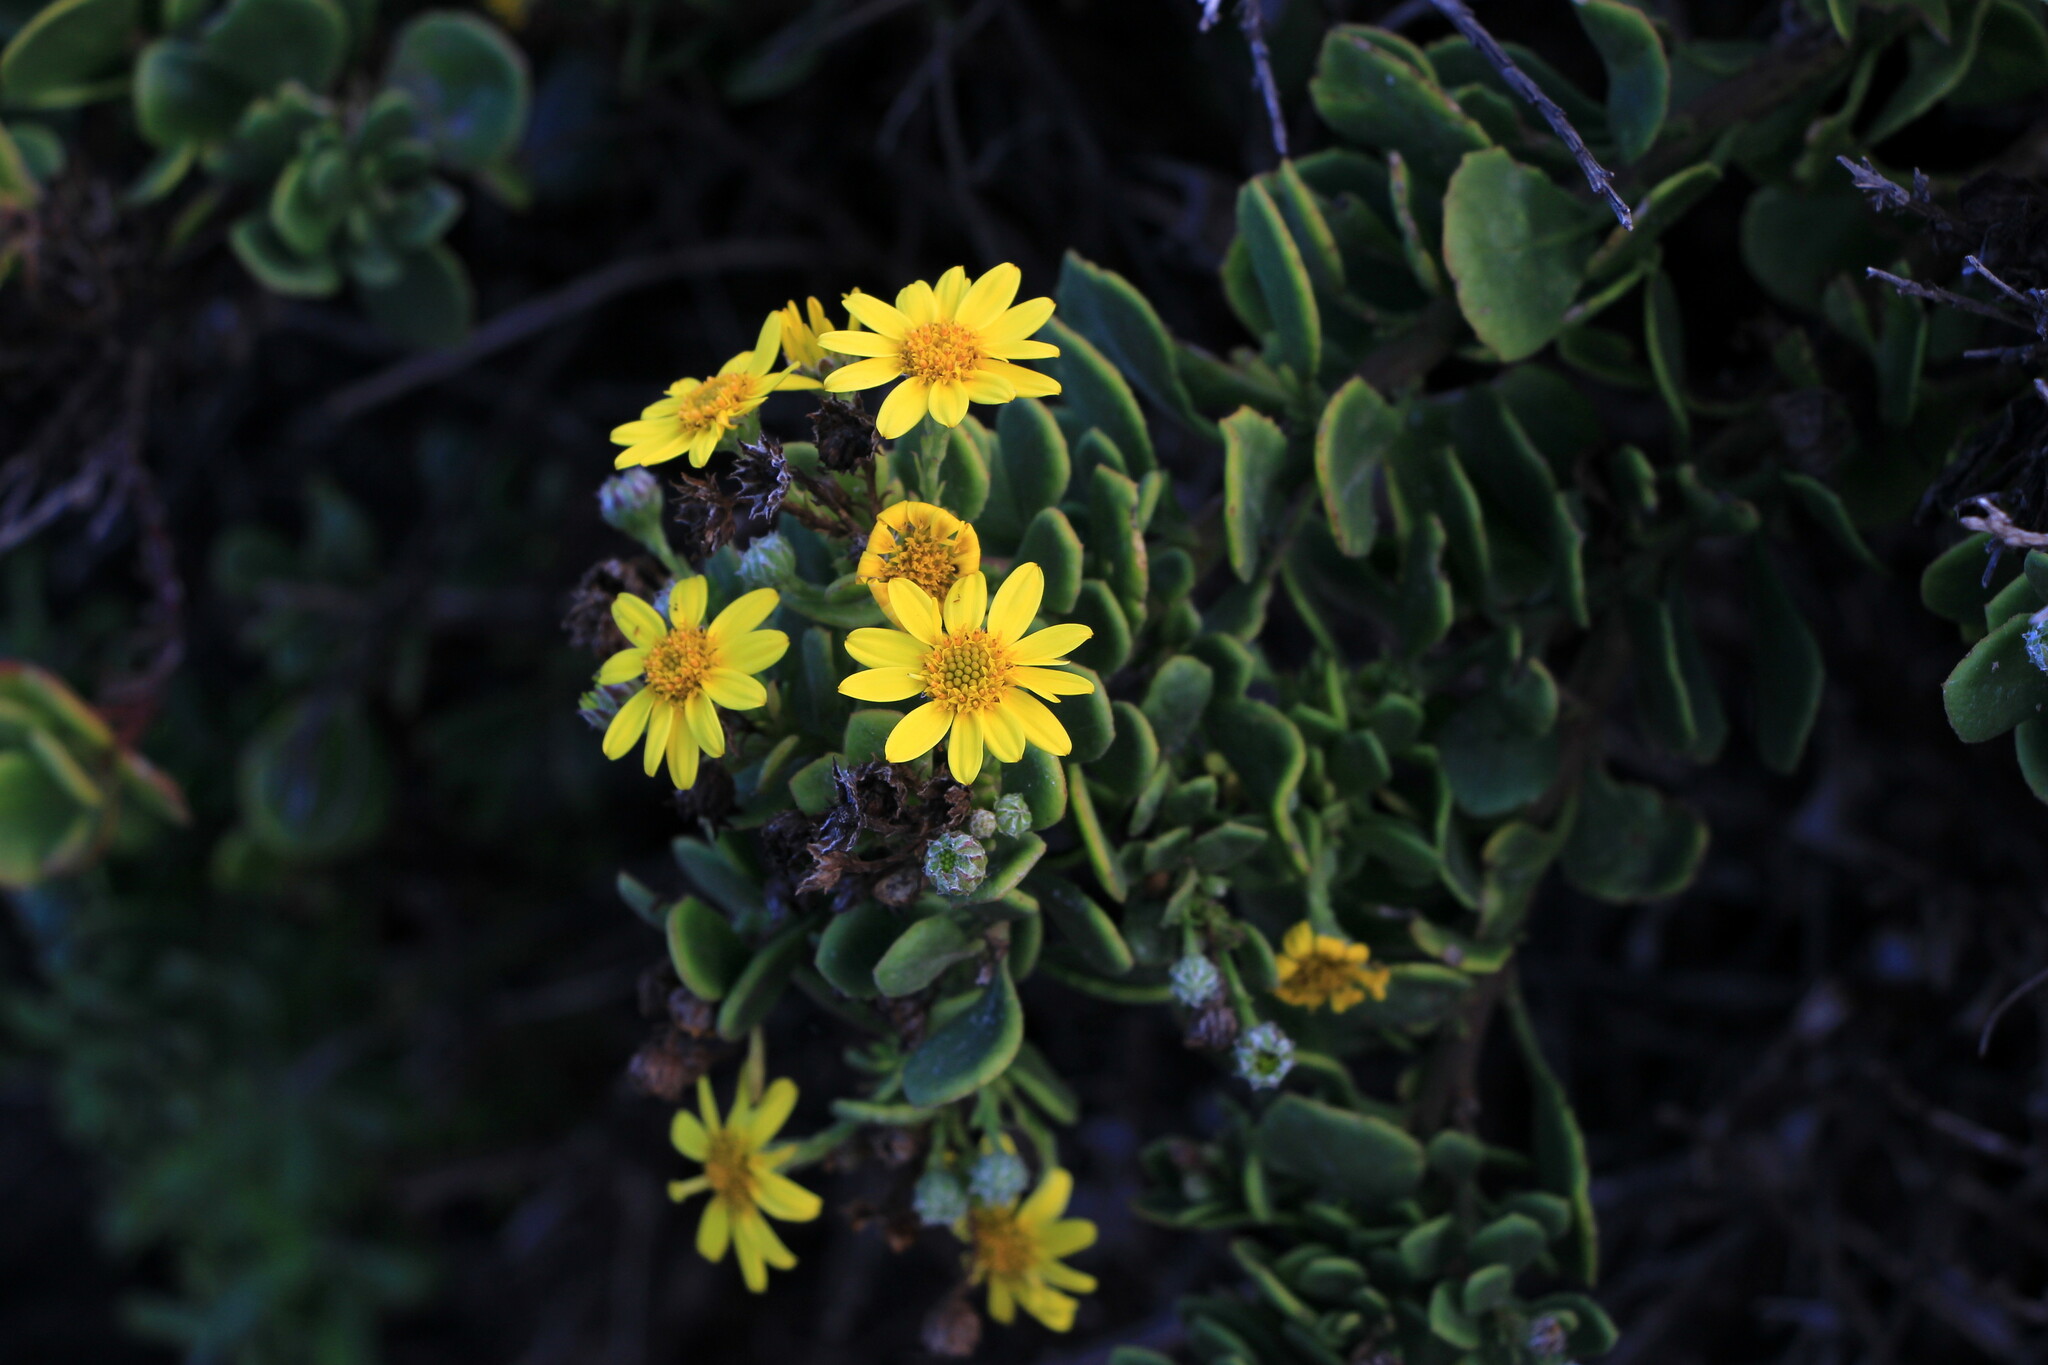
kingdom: Plantae
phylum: Tracheophyta
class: Magnoliopsida
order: Asterales
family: Asteraceae
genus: Osteospermum
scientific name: Osteospermum moniliferum
